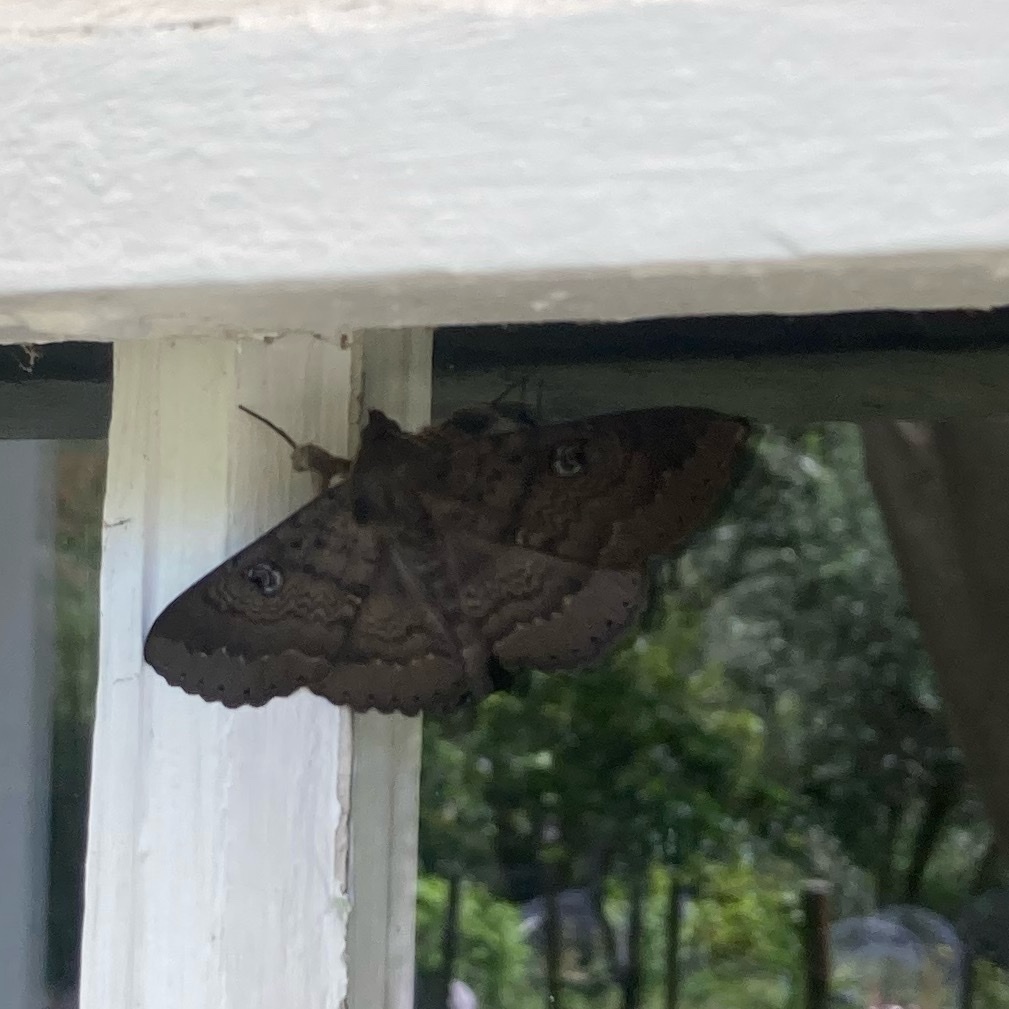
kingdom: Animalia
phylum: Arthropoda
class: Insecta
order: Lepidoptera
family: Erebidae
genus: Dasypodia
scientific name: Dasypodia cymatodes
